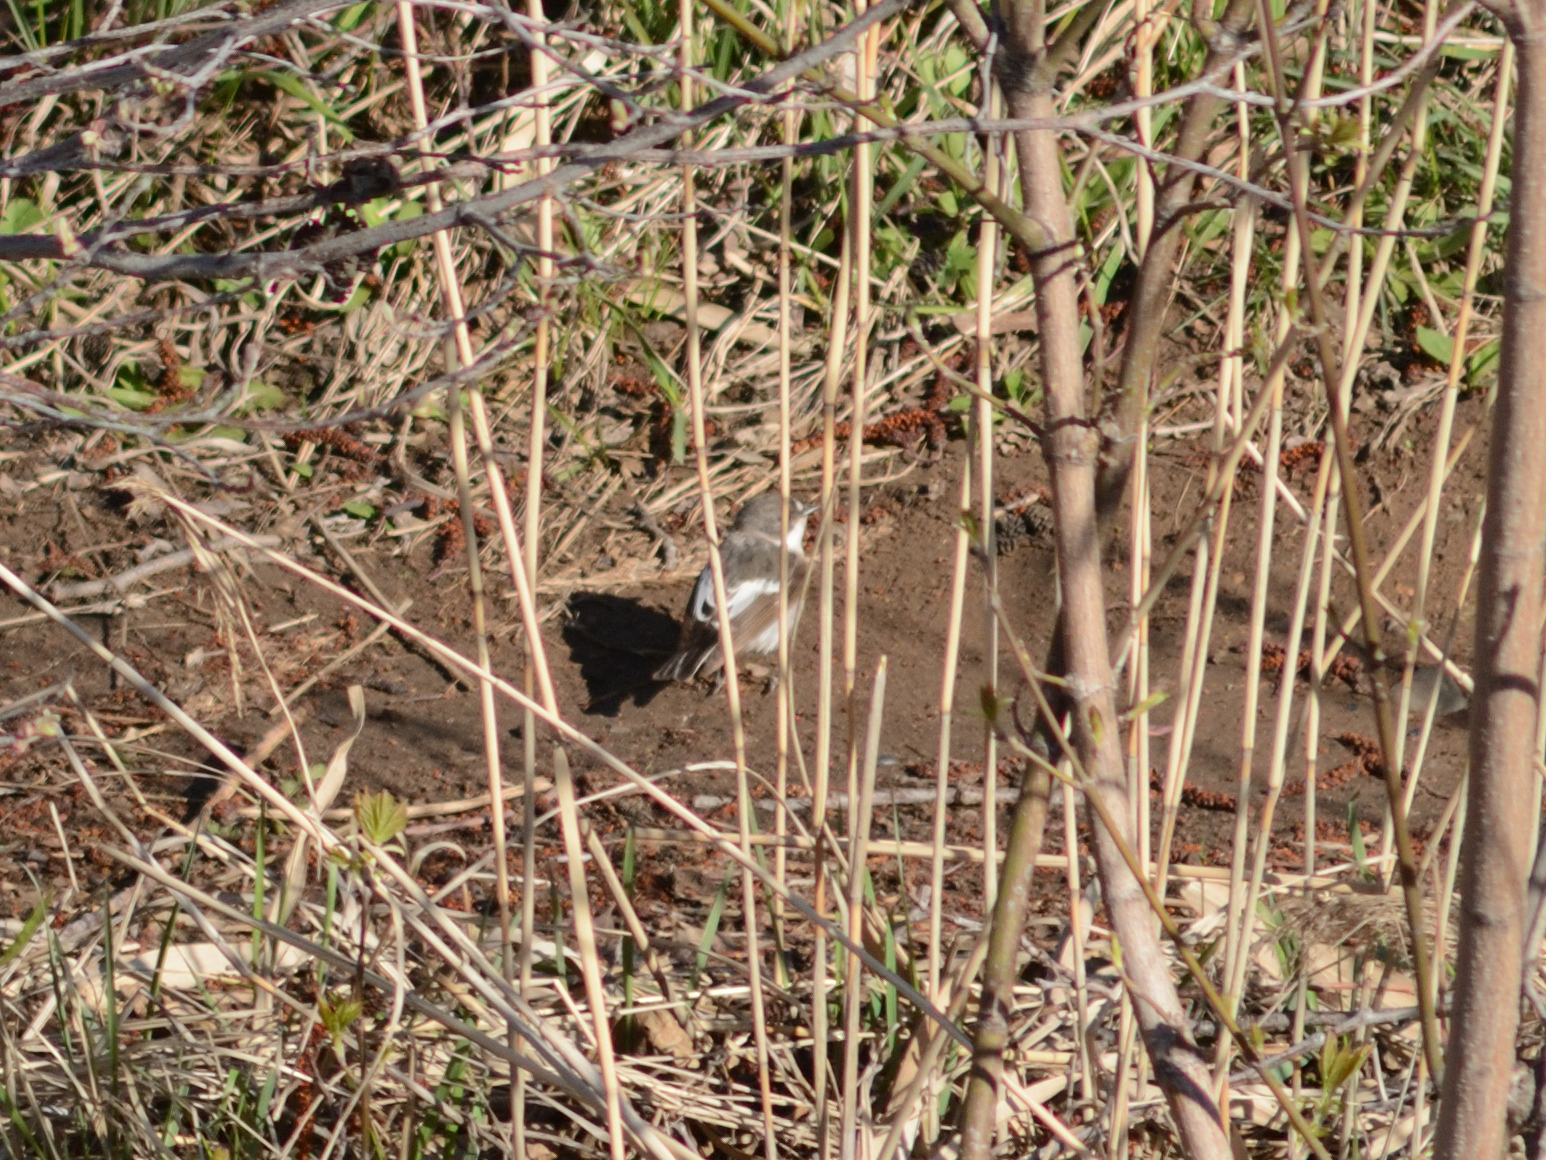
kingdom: Animalia
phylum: Chordata
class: Aves
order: Passeriformes
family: Muscicapidae
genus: Ficedula
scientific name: Ficedula hypoleuca
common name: European pied flycatcher
